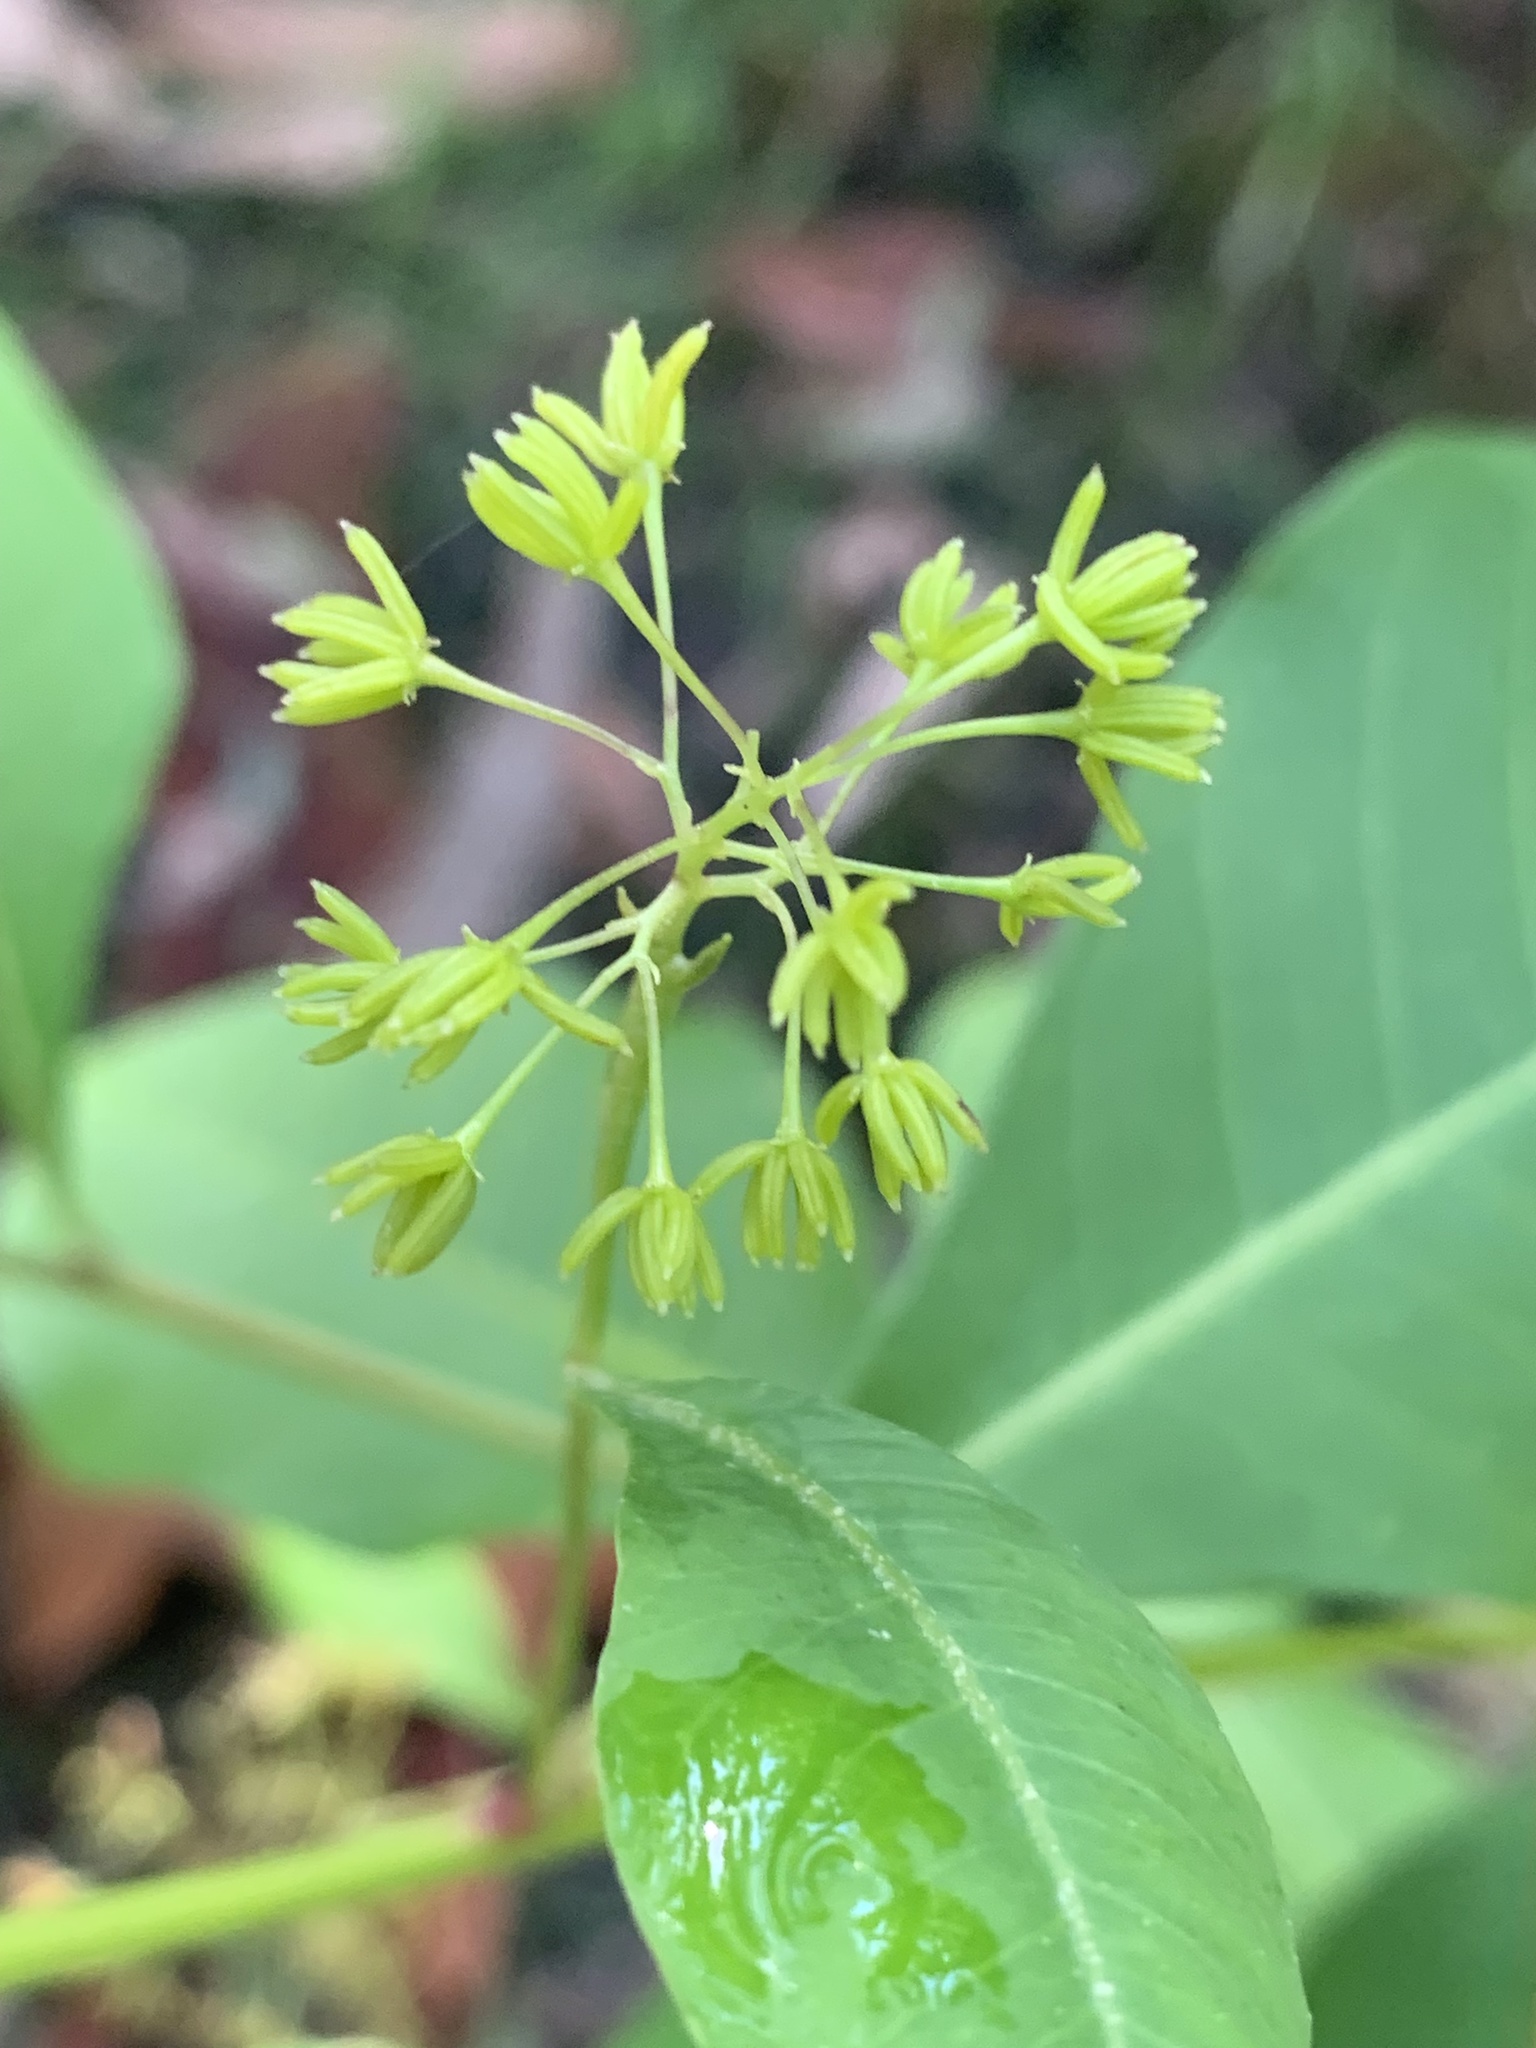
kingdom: Plantae
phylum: Tracheophyta
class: Magnoliopsida
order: Sapindales
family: Sapindaceae
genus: Dodonaea
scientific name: Dodonaea triquetra
